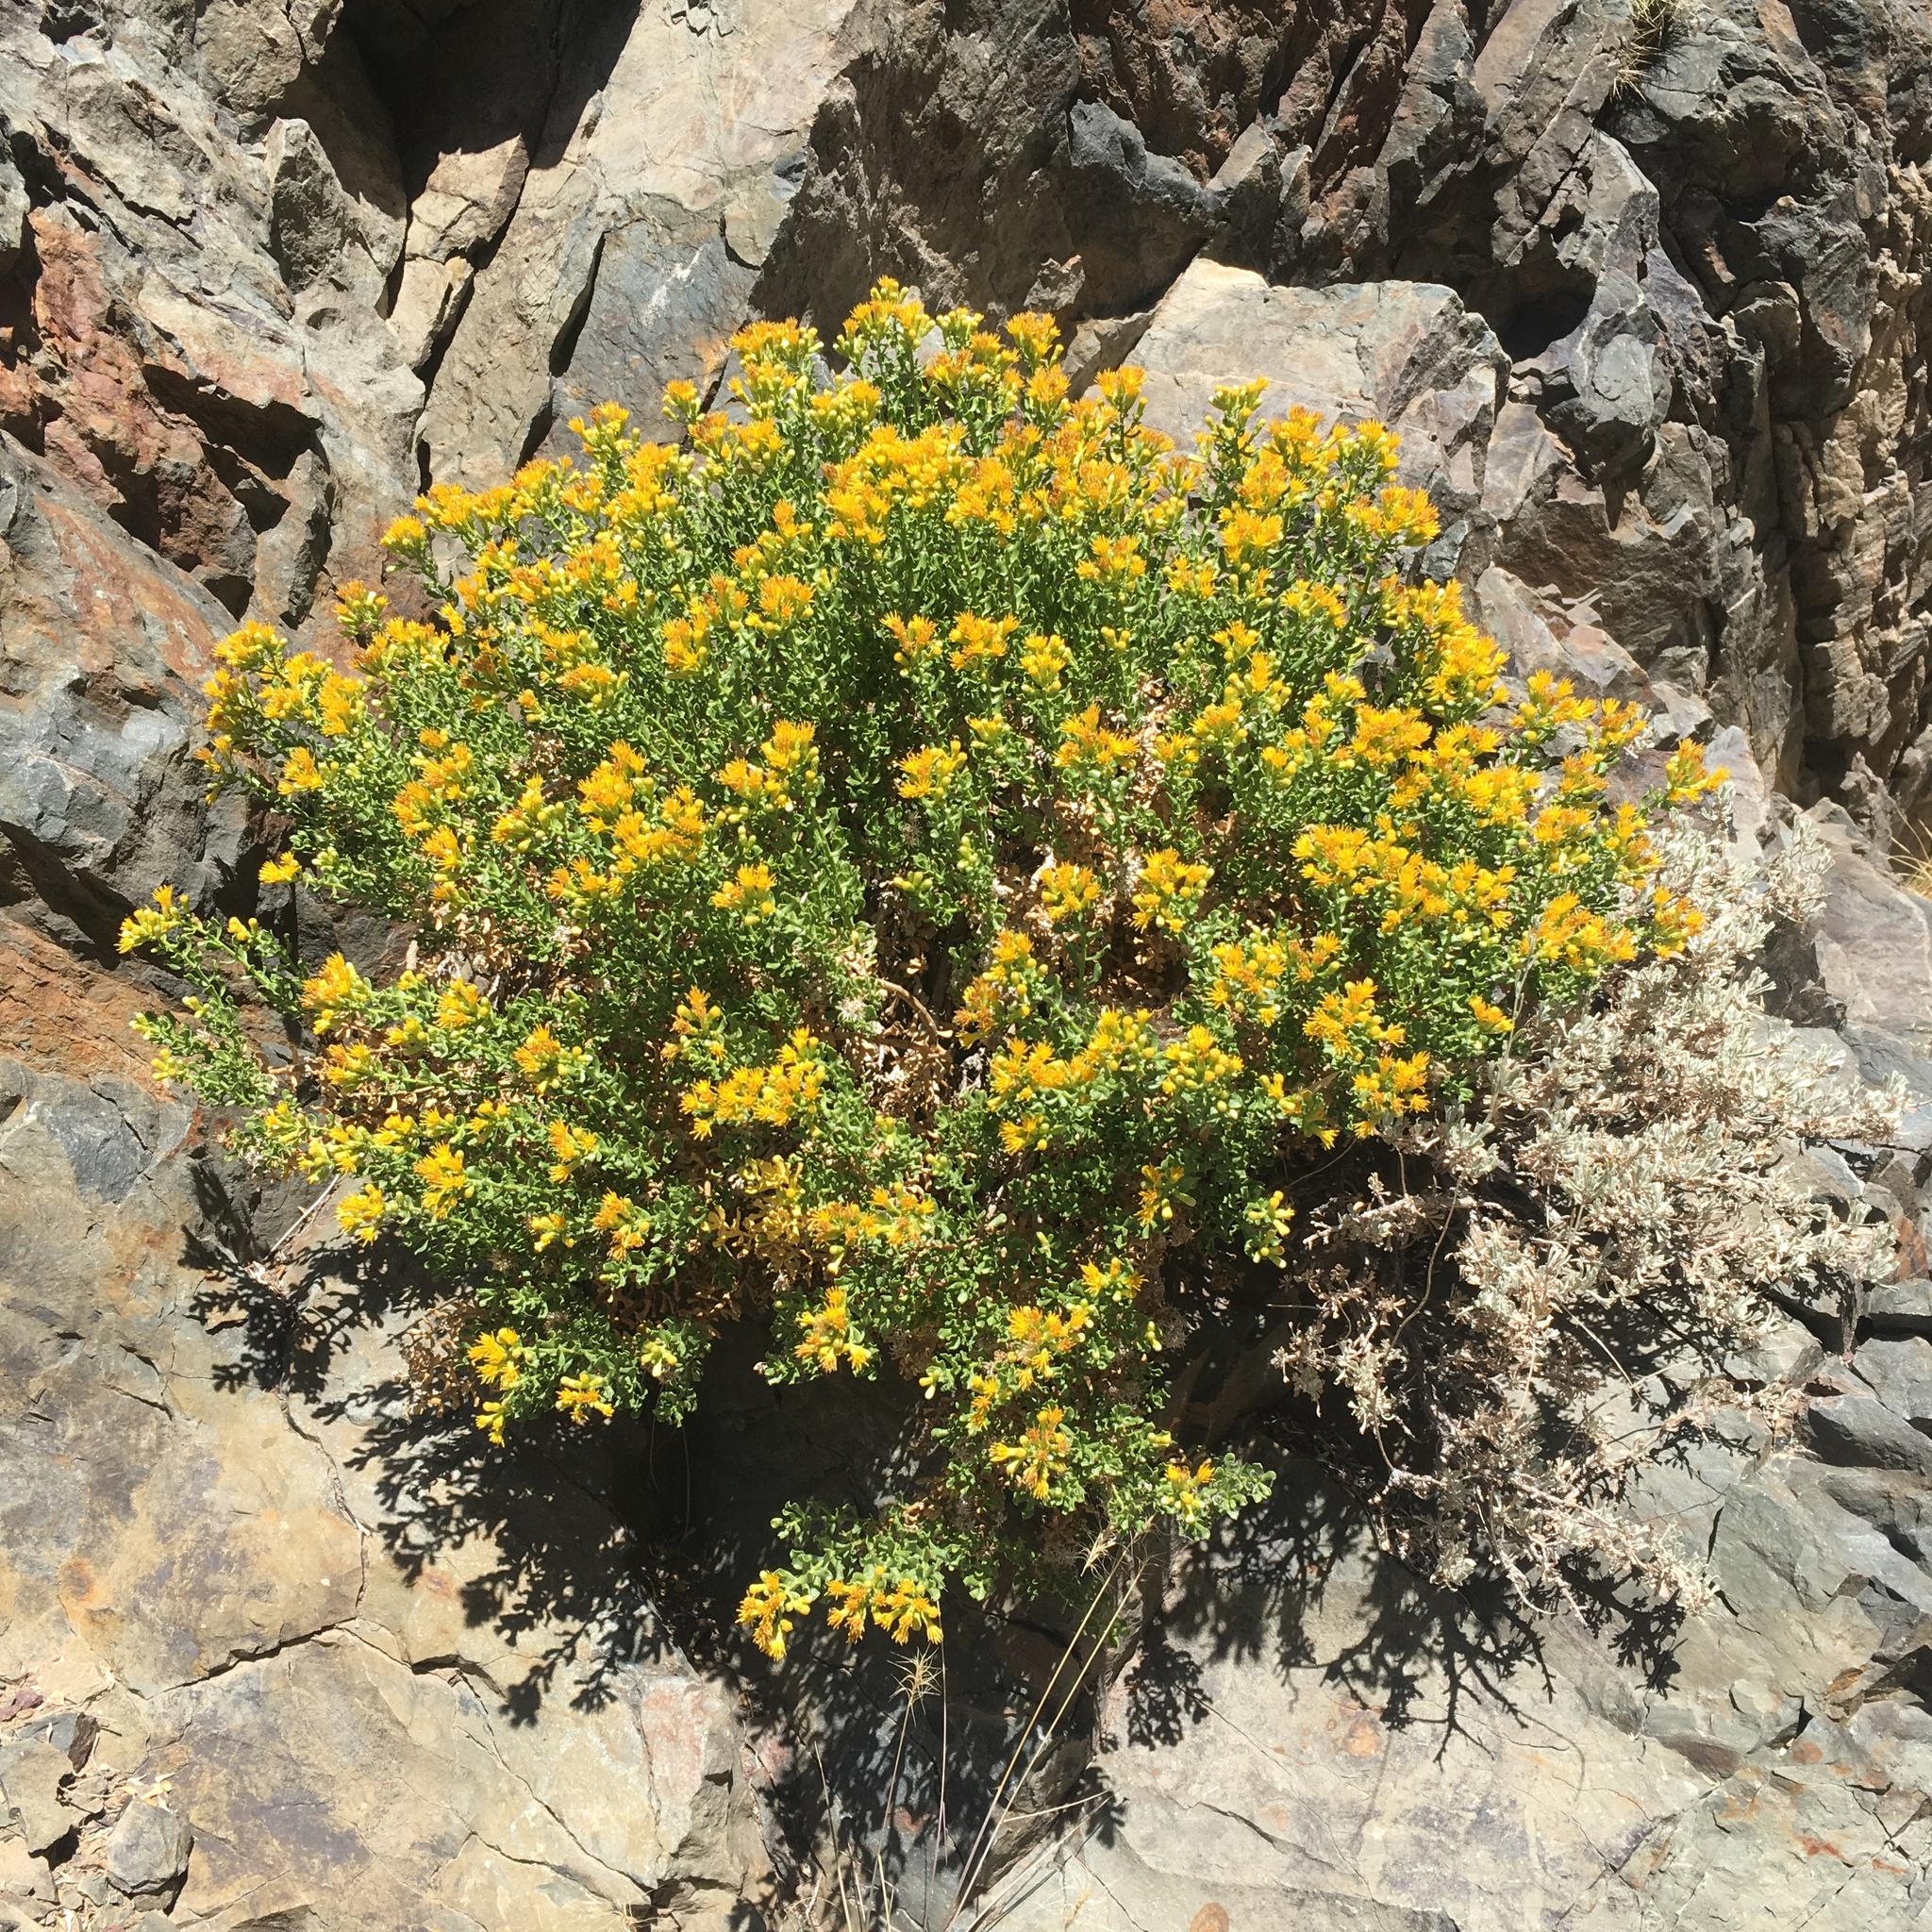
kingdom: Plantae
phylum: Tracheophyta
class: Magnoliopsida
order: Asterales
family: Asteraceae
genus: Ericameria
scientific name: Ericameria cuneata
